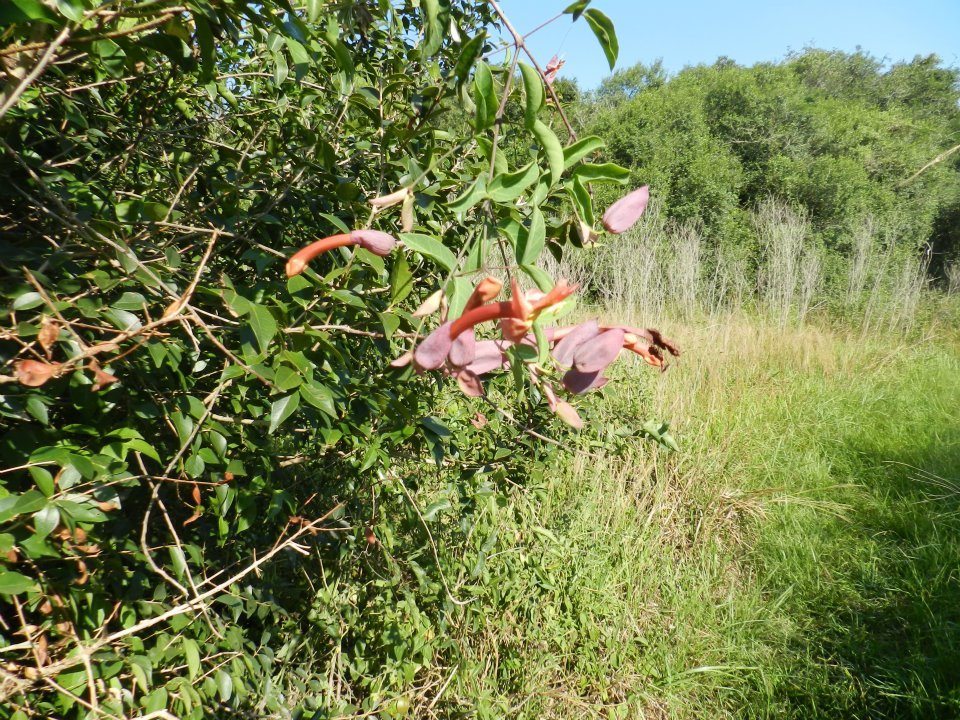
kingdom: Plantae
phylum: Tracheophyta
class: Magnoliopsida
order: Lamiales
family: Bignoniaceae
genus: Dolichandra
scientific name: Dolichandra cynanchoides
